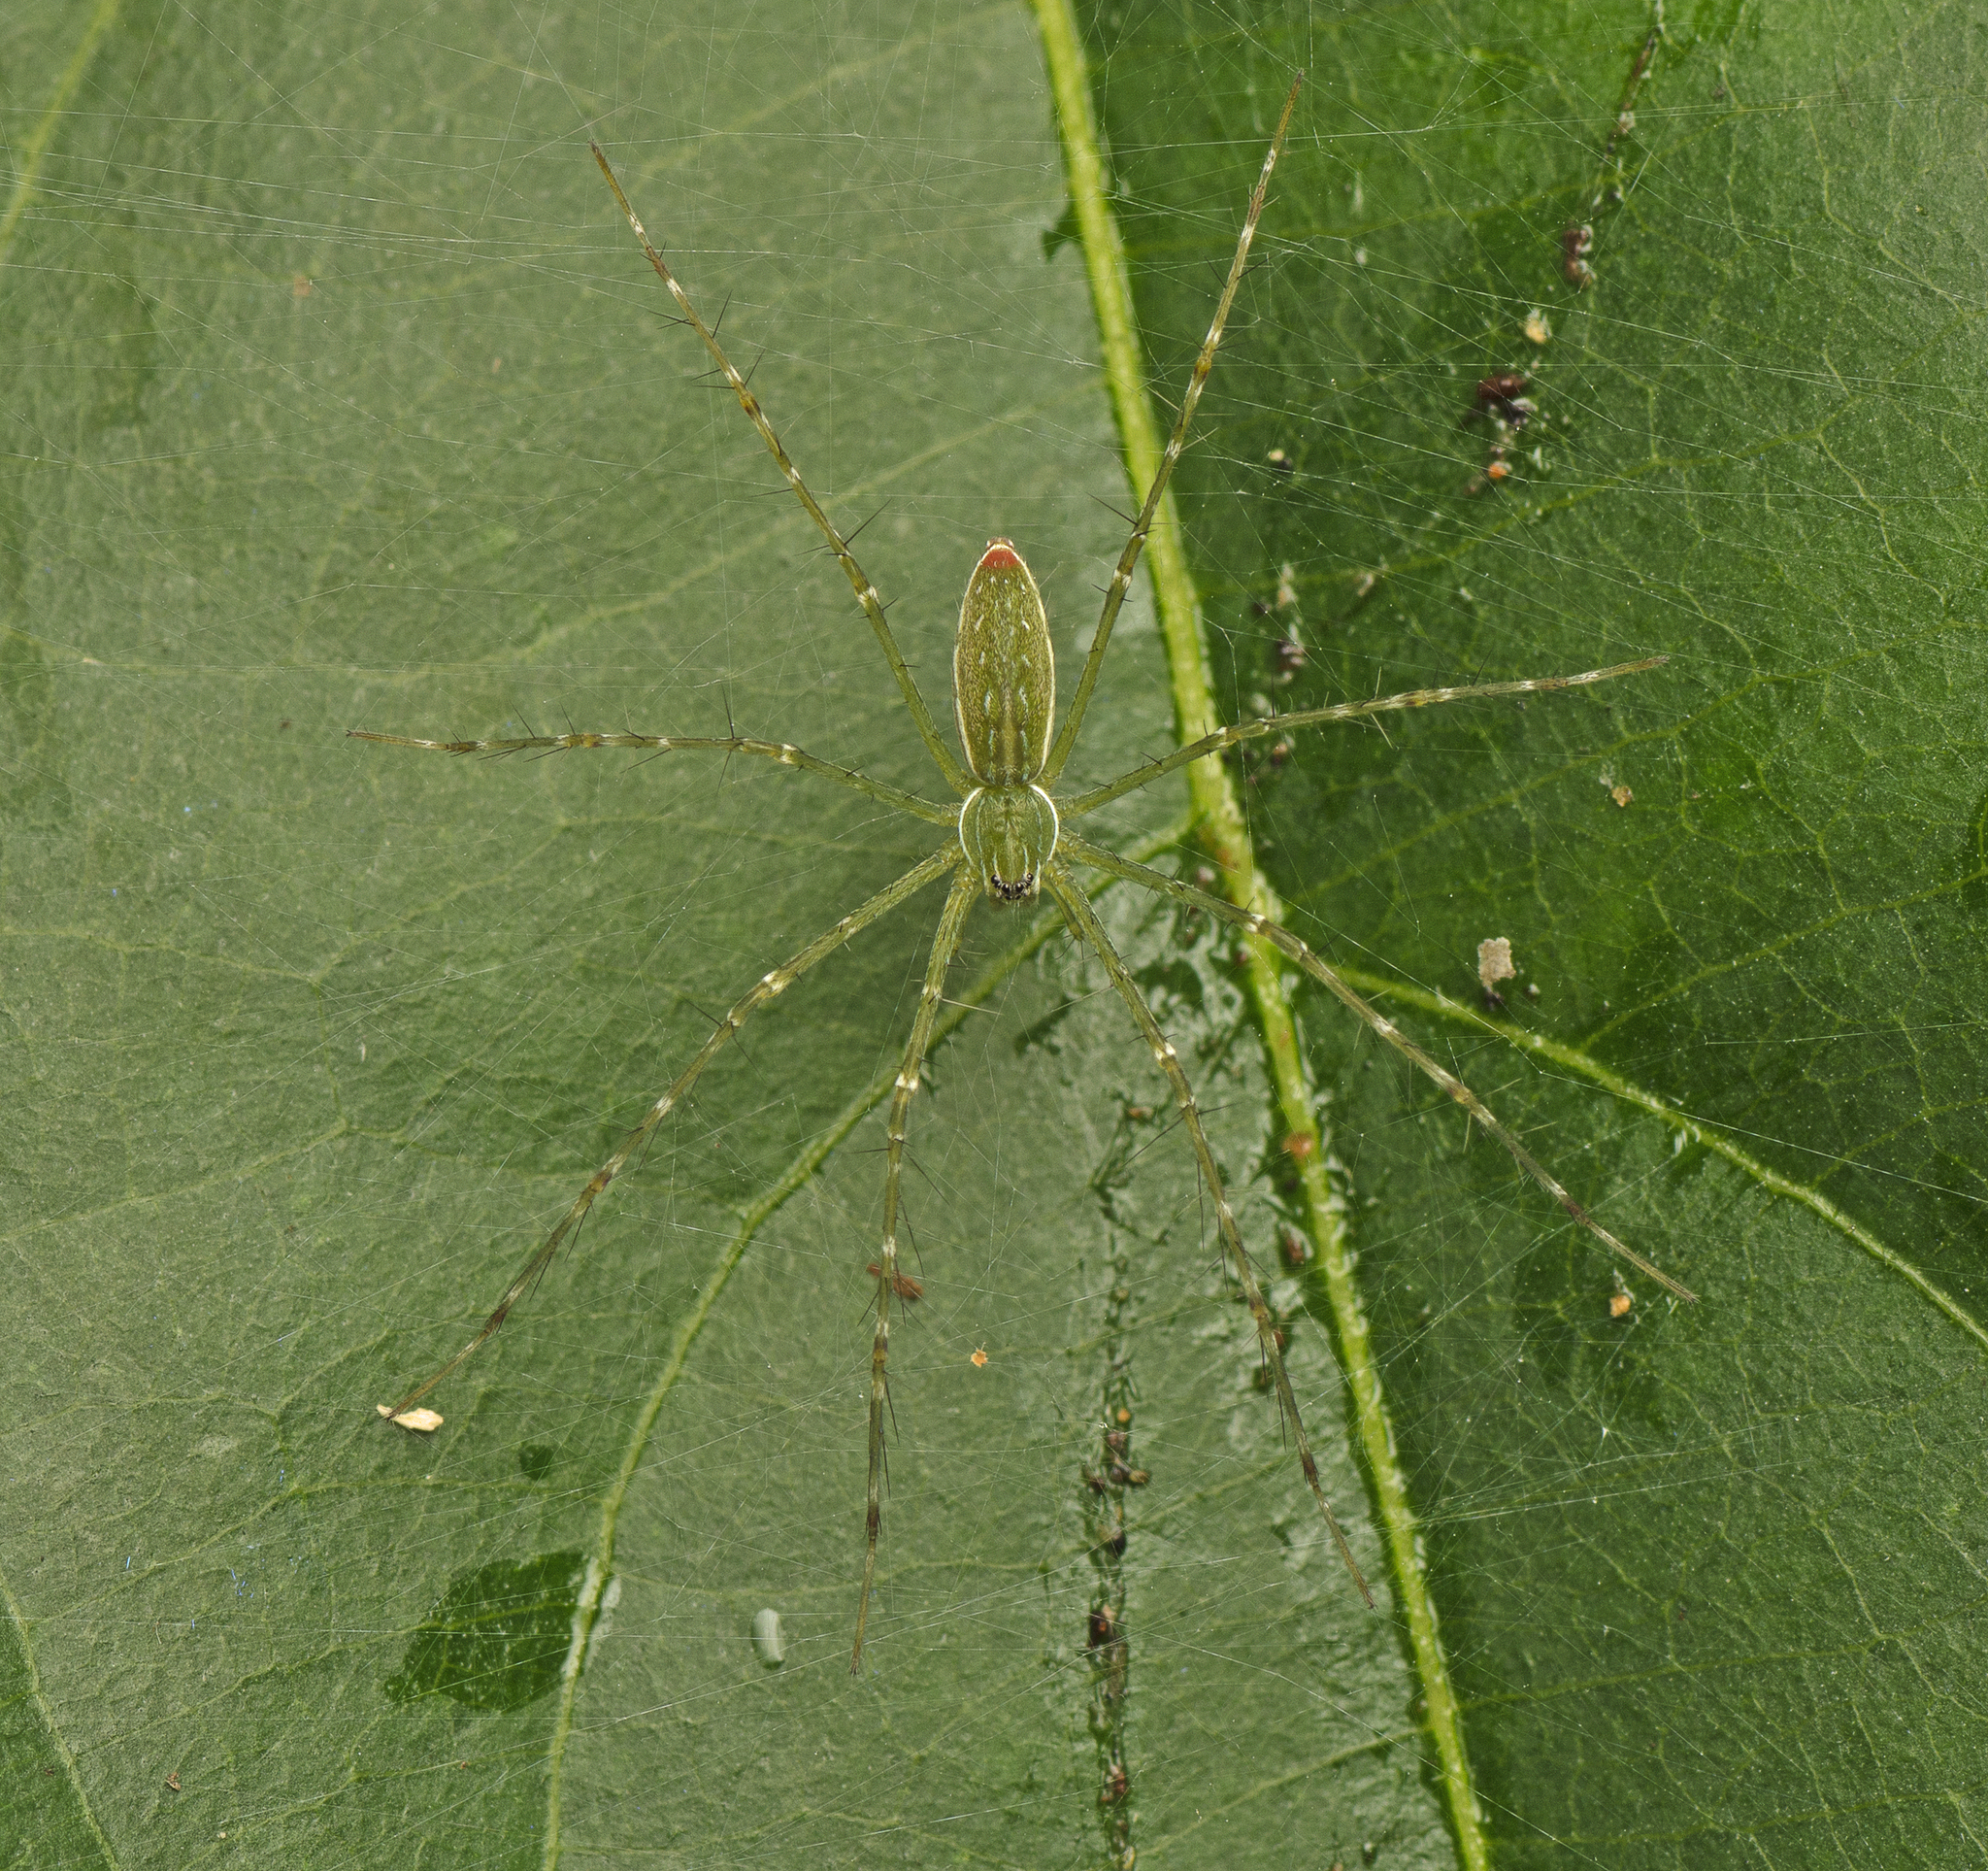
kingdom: Animalia
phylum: Arthropoda
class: Arachnida
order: Araneae
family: Pisauridae
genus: Hygropoda
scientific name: Hygropoda lineata
